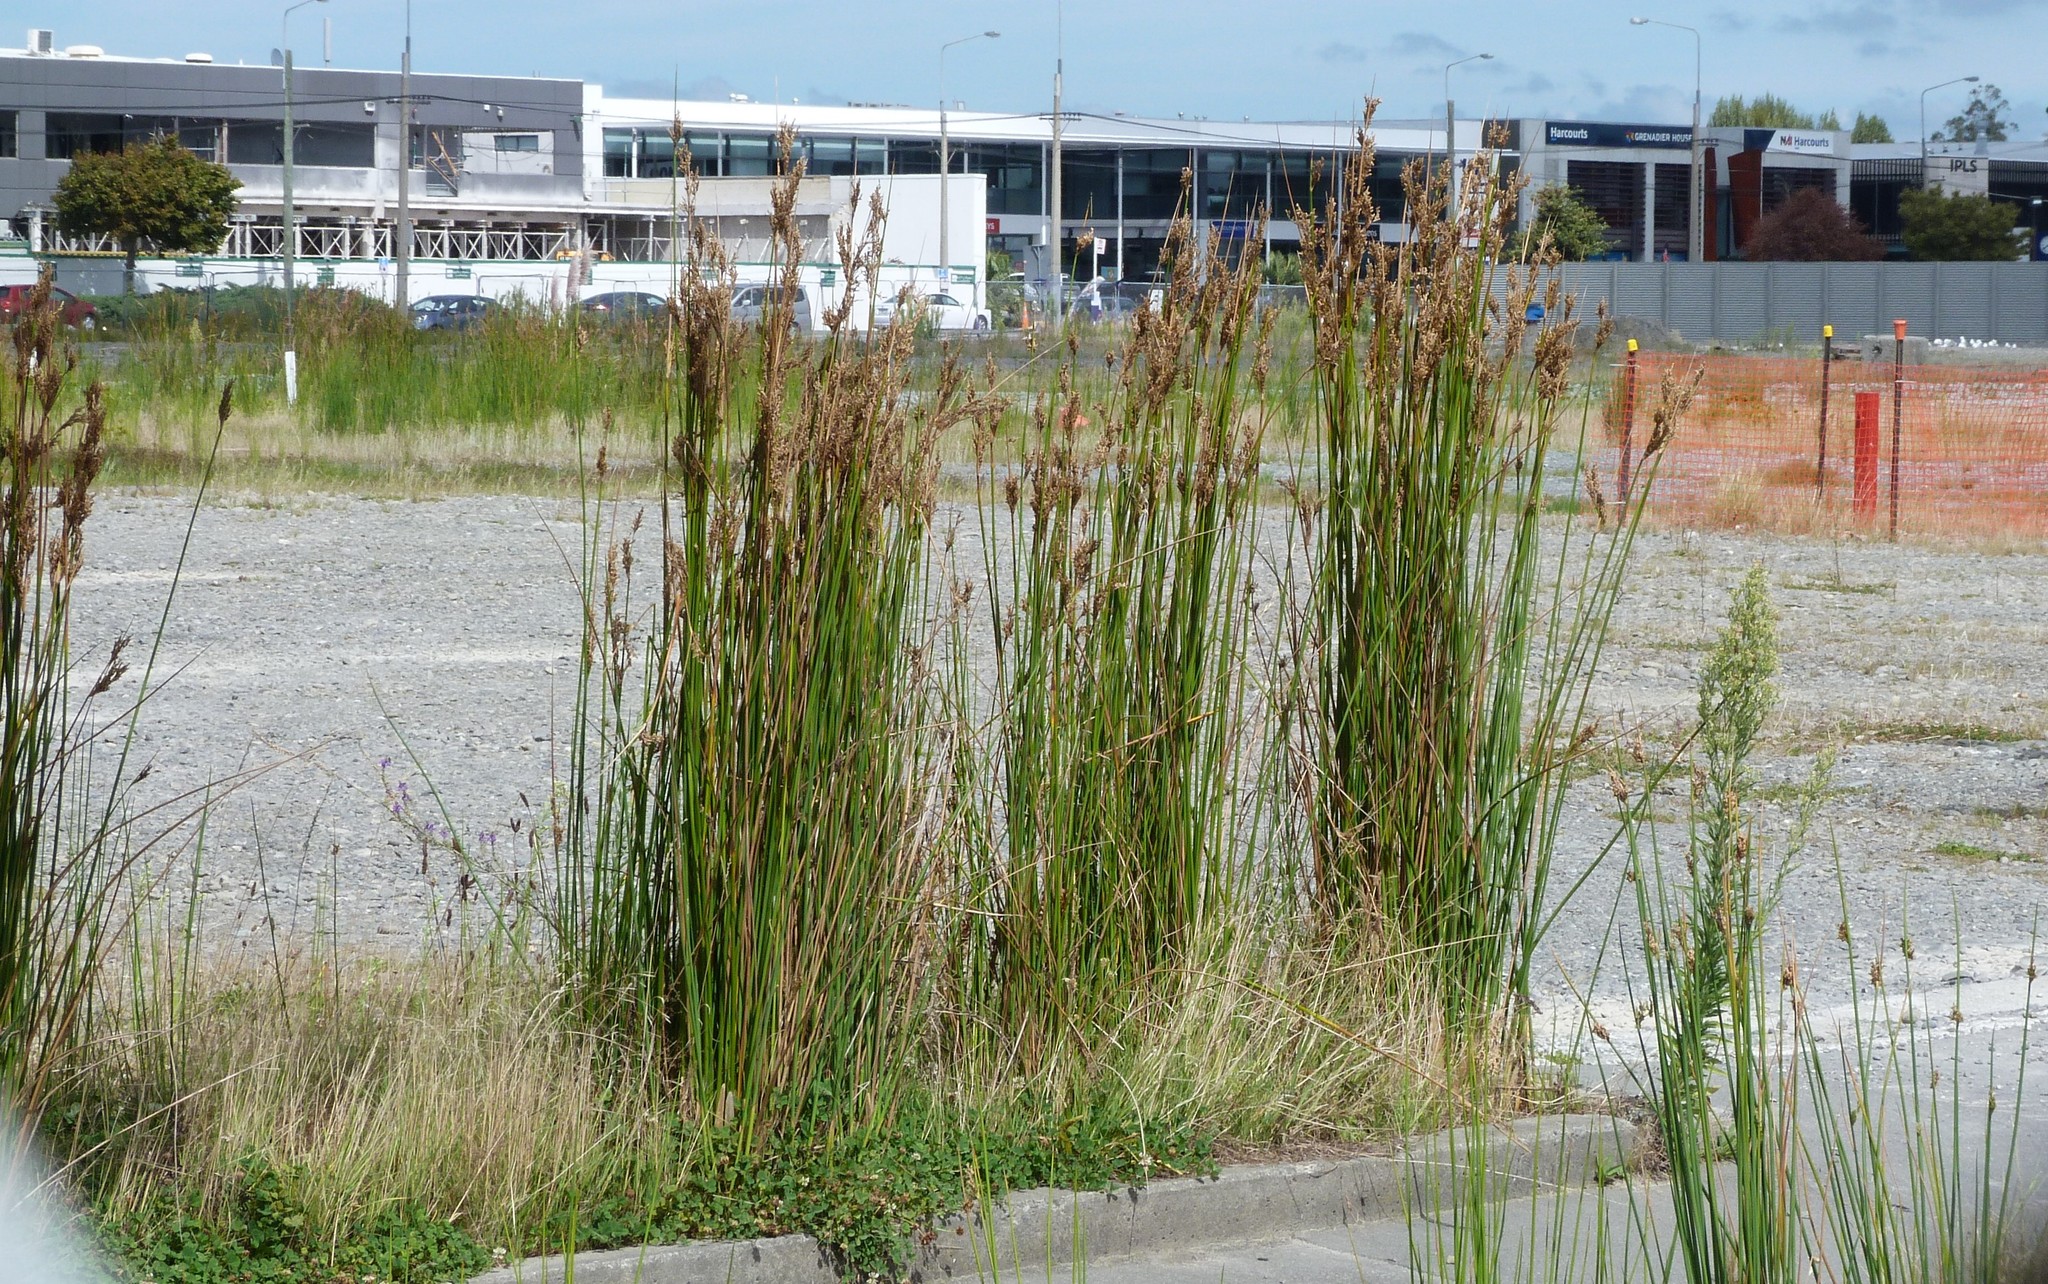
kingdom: Plantae
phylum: Tracheophyta
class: Liliopsida
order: Poales
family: Juncaceae
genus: Juncus
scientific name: Juncus pallidus
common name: Great soft-rush
